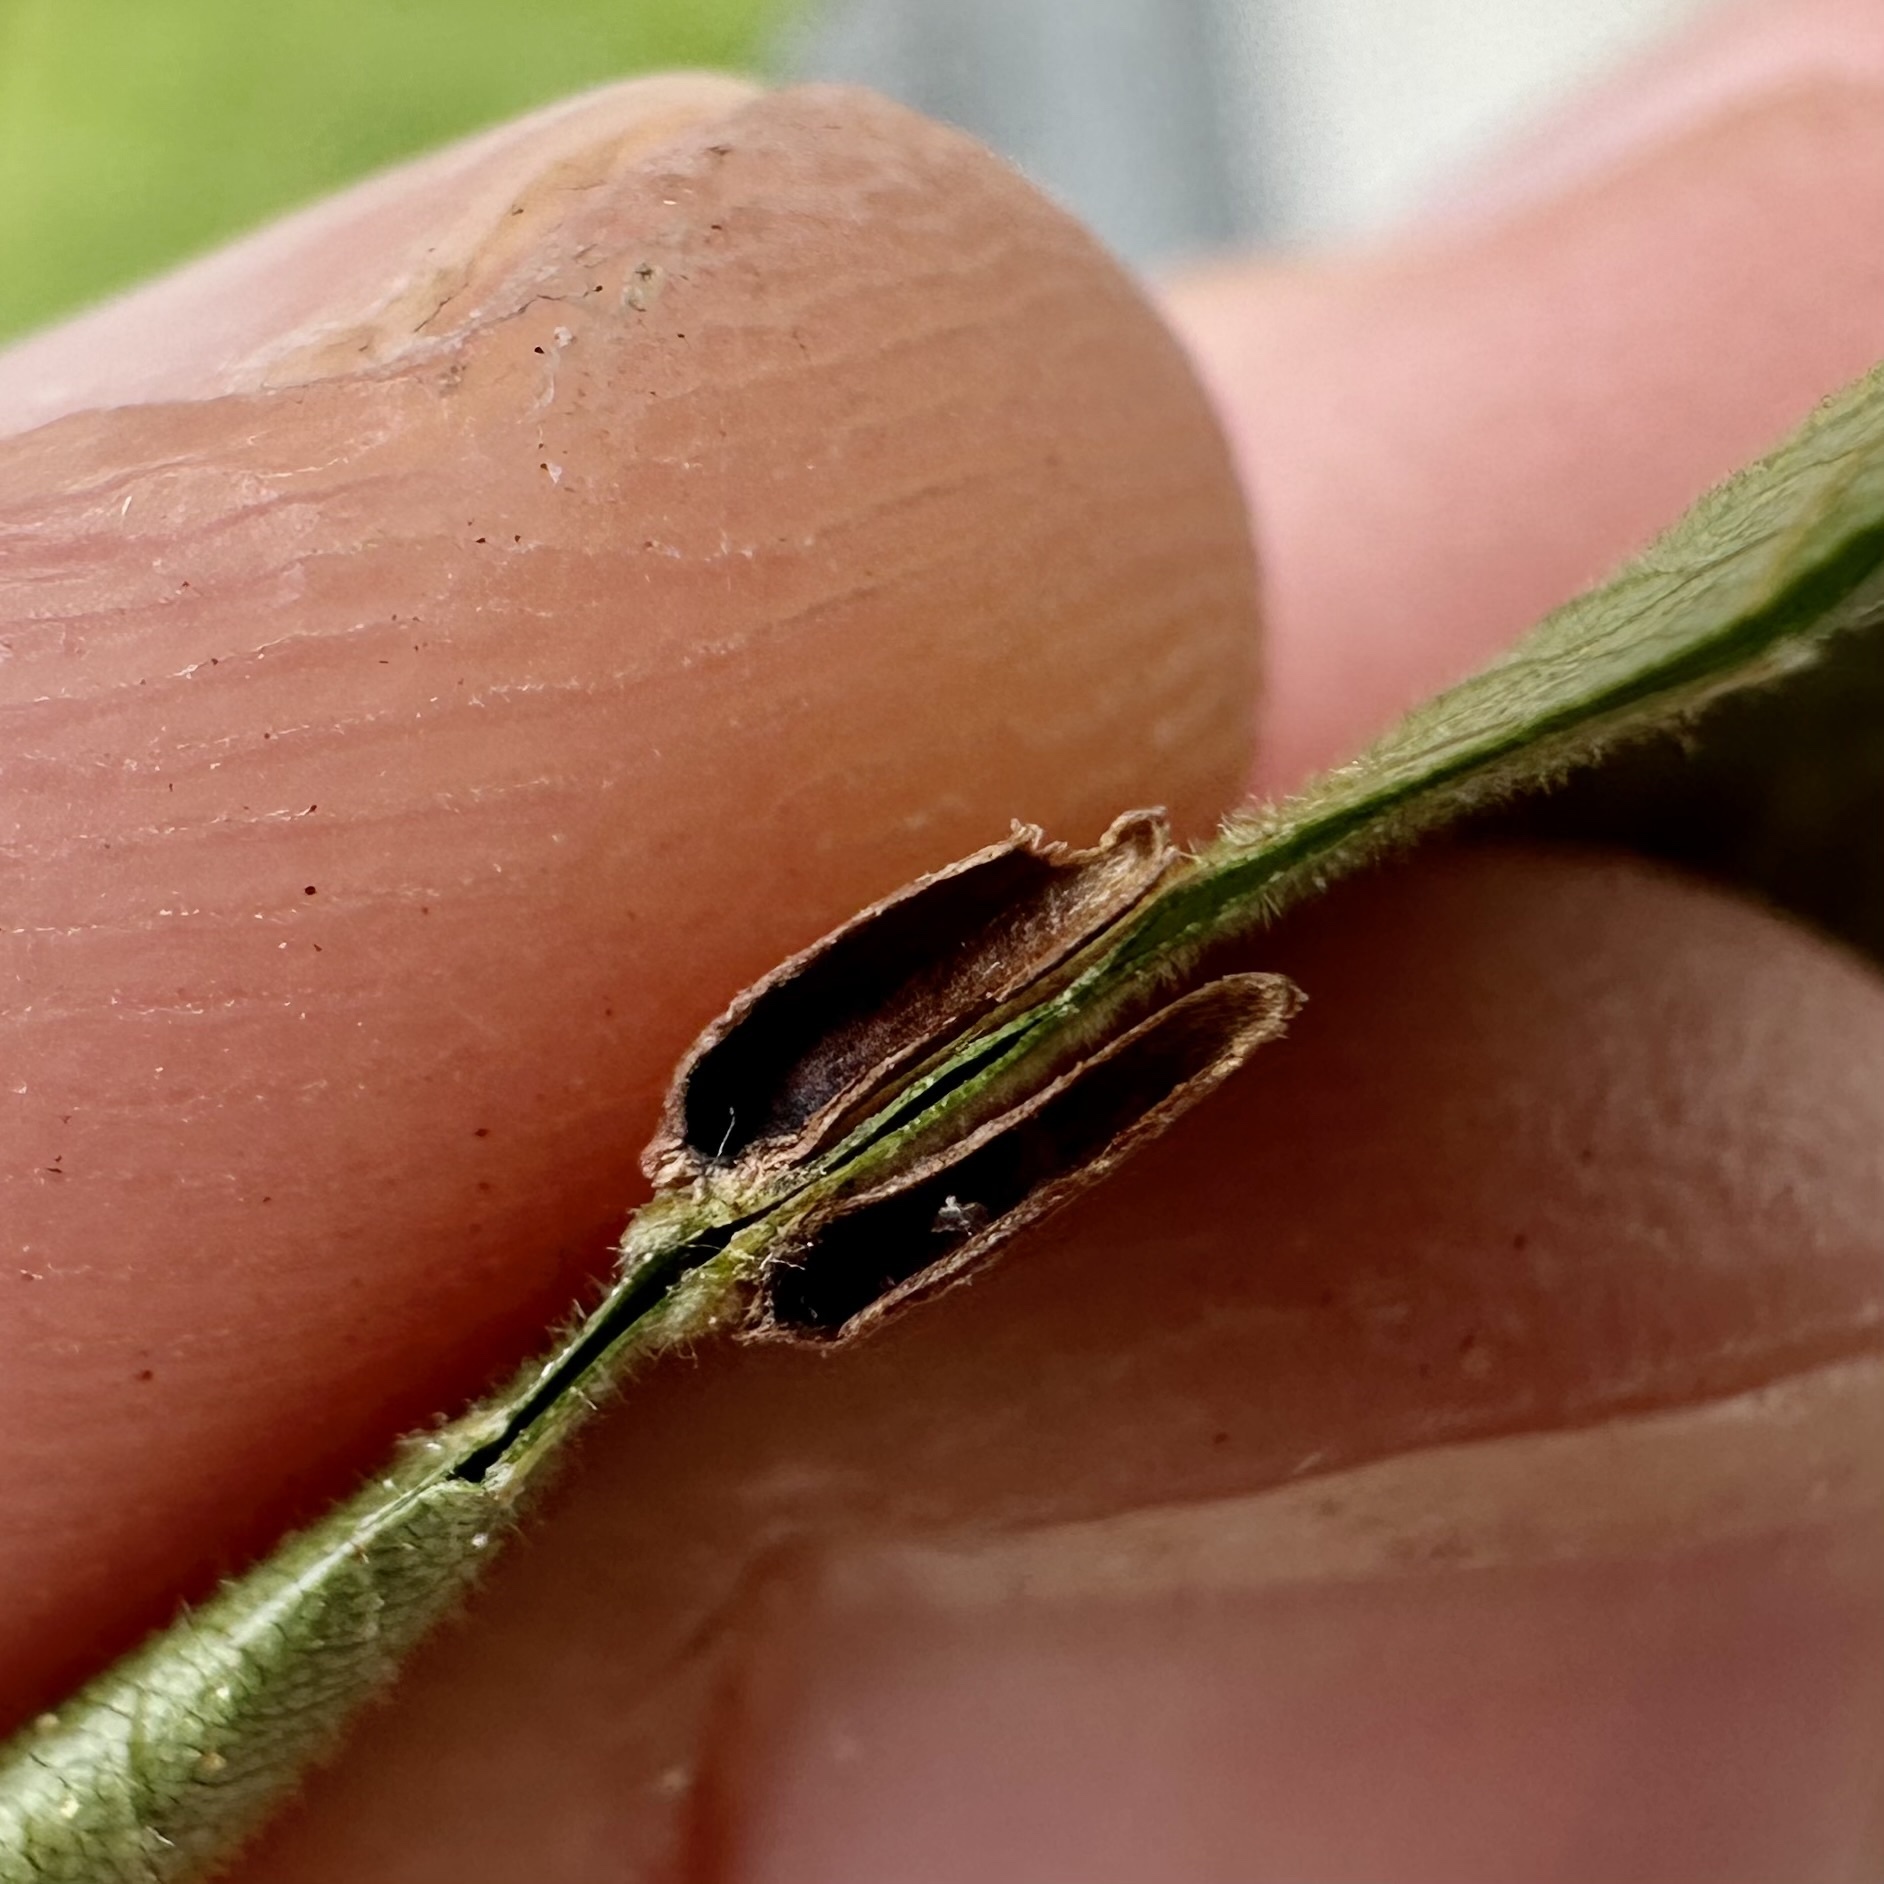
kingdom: Animalia
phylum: Arthropoda
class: Insecta
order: Diptera
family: Cecidomyiidae
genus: Caryomyia
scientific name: Caryomyia striolata
